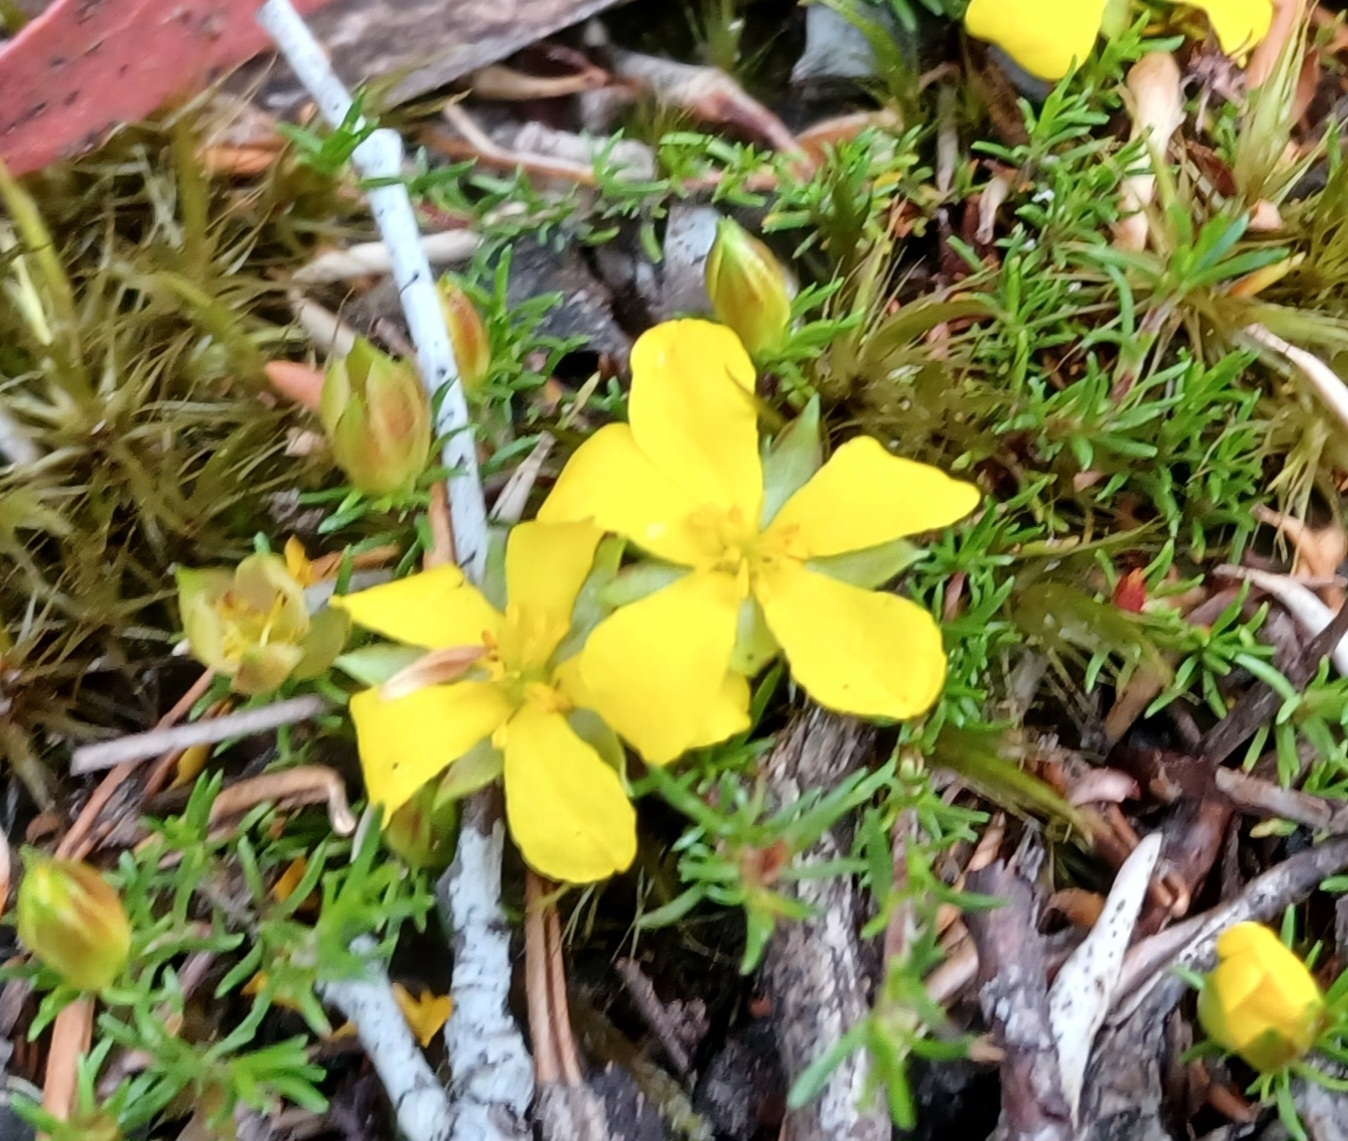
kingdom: Plantae
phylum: Tracheophyta
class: Magnoliopsida
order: Dilleniales
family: Dilleniaceae
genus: Hibbertia
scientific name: Hibbertia procumbens
